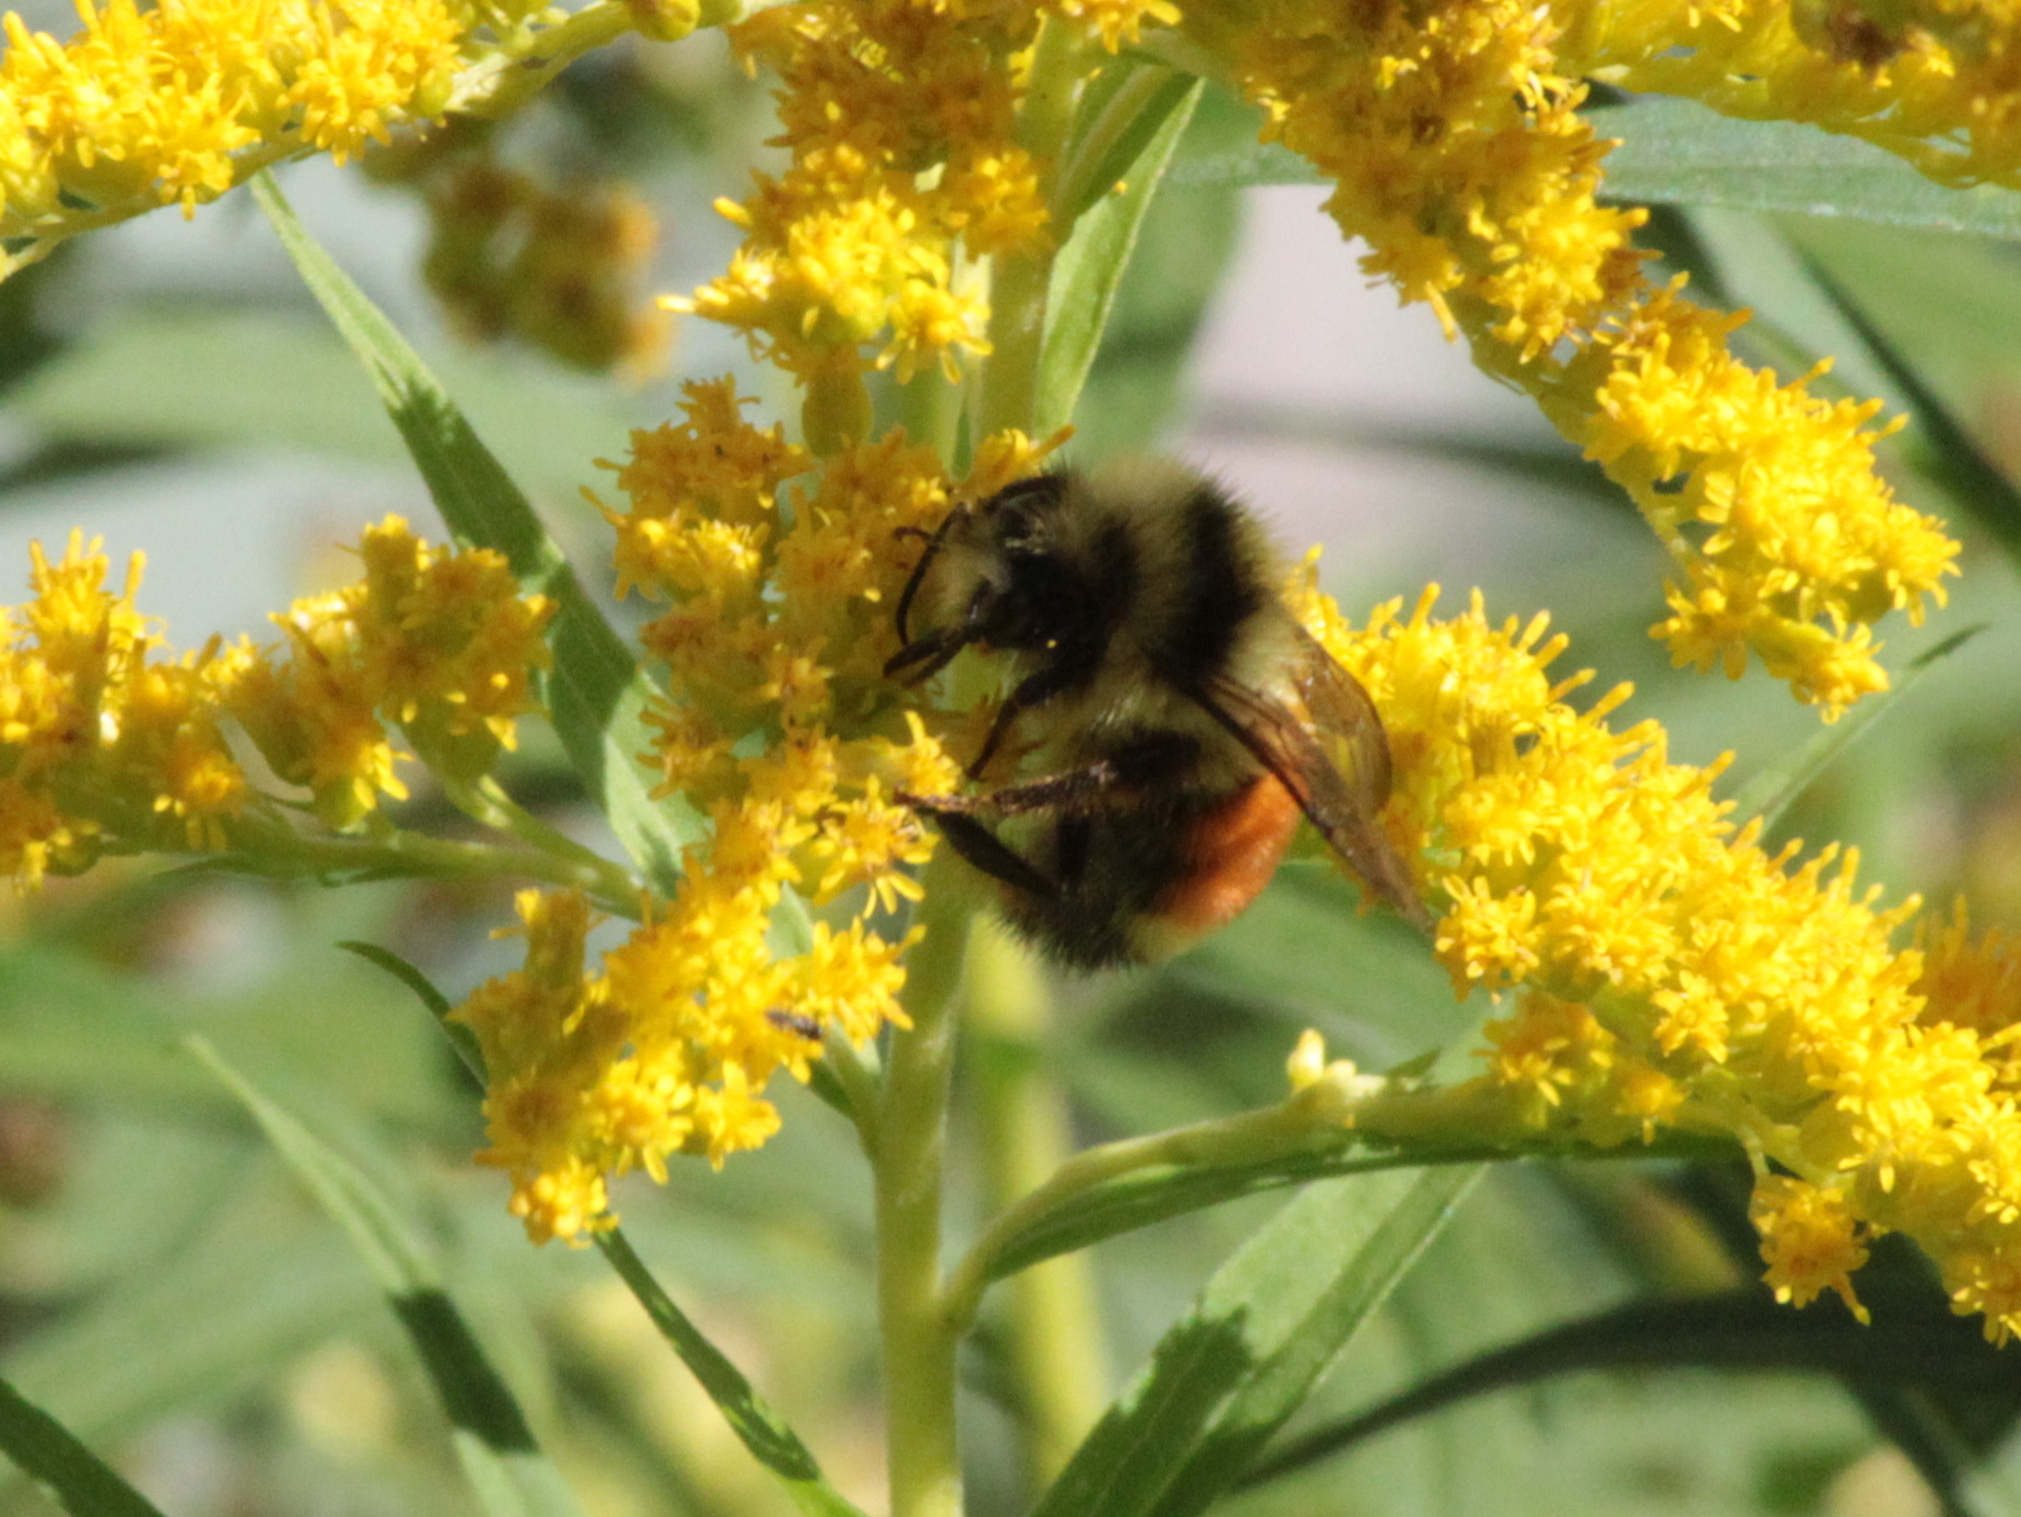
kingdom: Animalia
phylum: Arthropoda
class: Insecta
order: Hymenoptera
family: Apidae
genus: Bombus
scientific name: Bombus ternarius
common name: Tri-colored bumble bee
